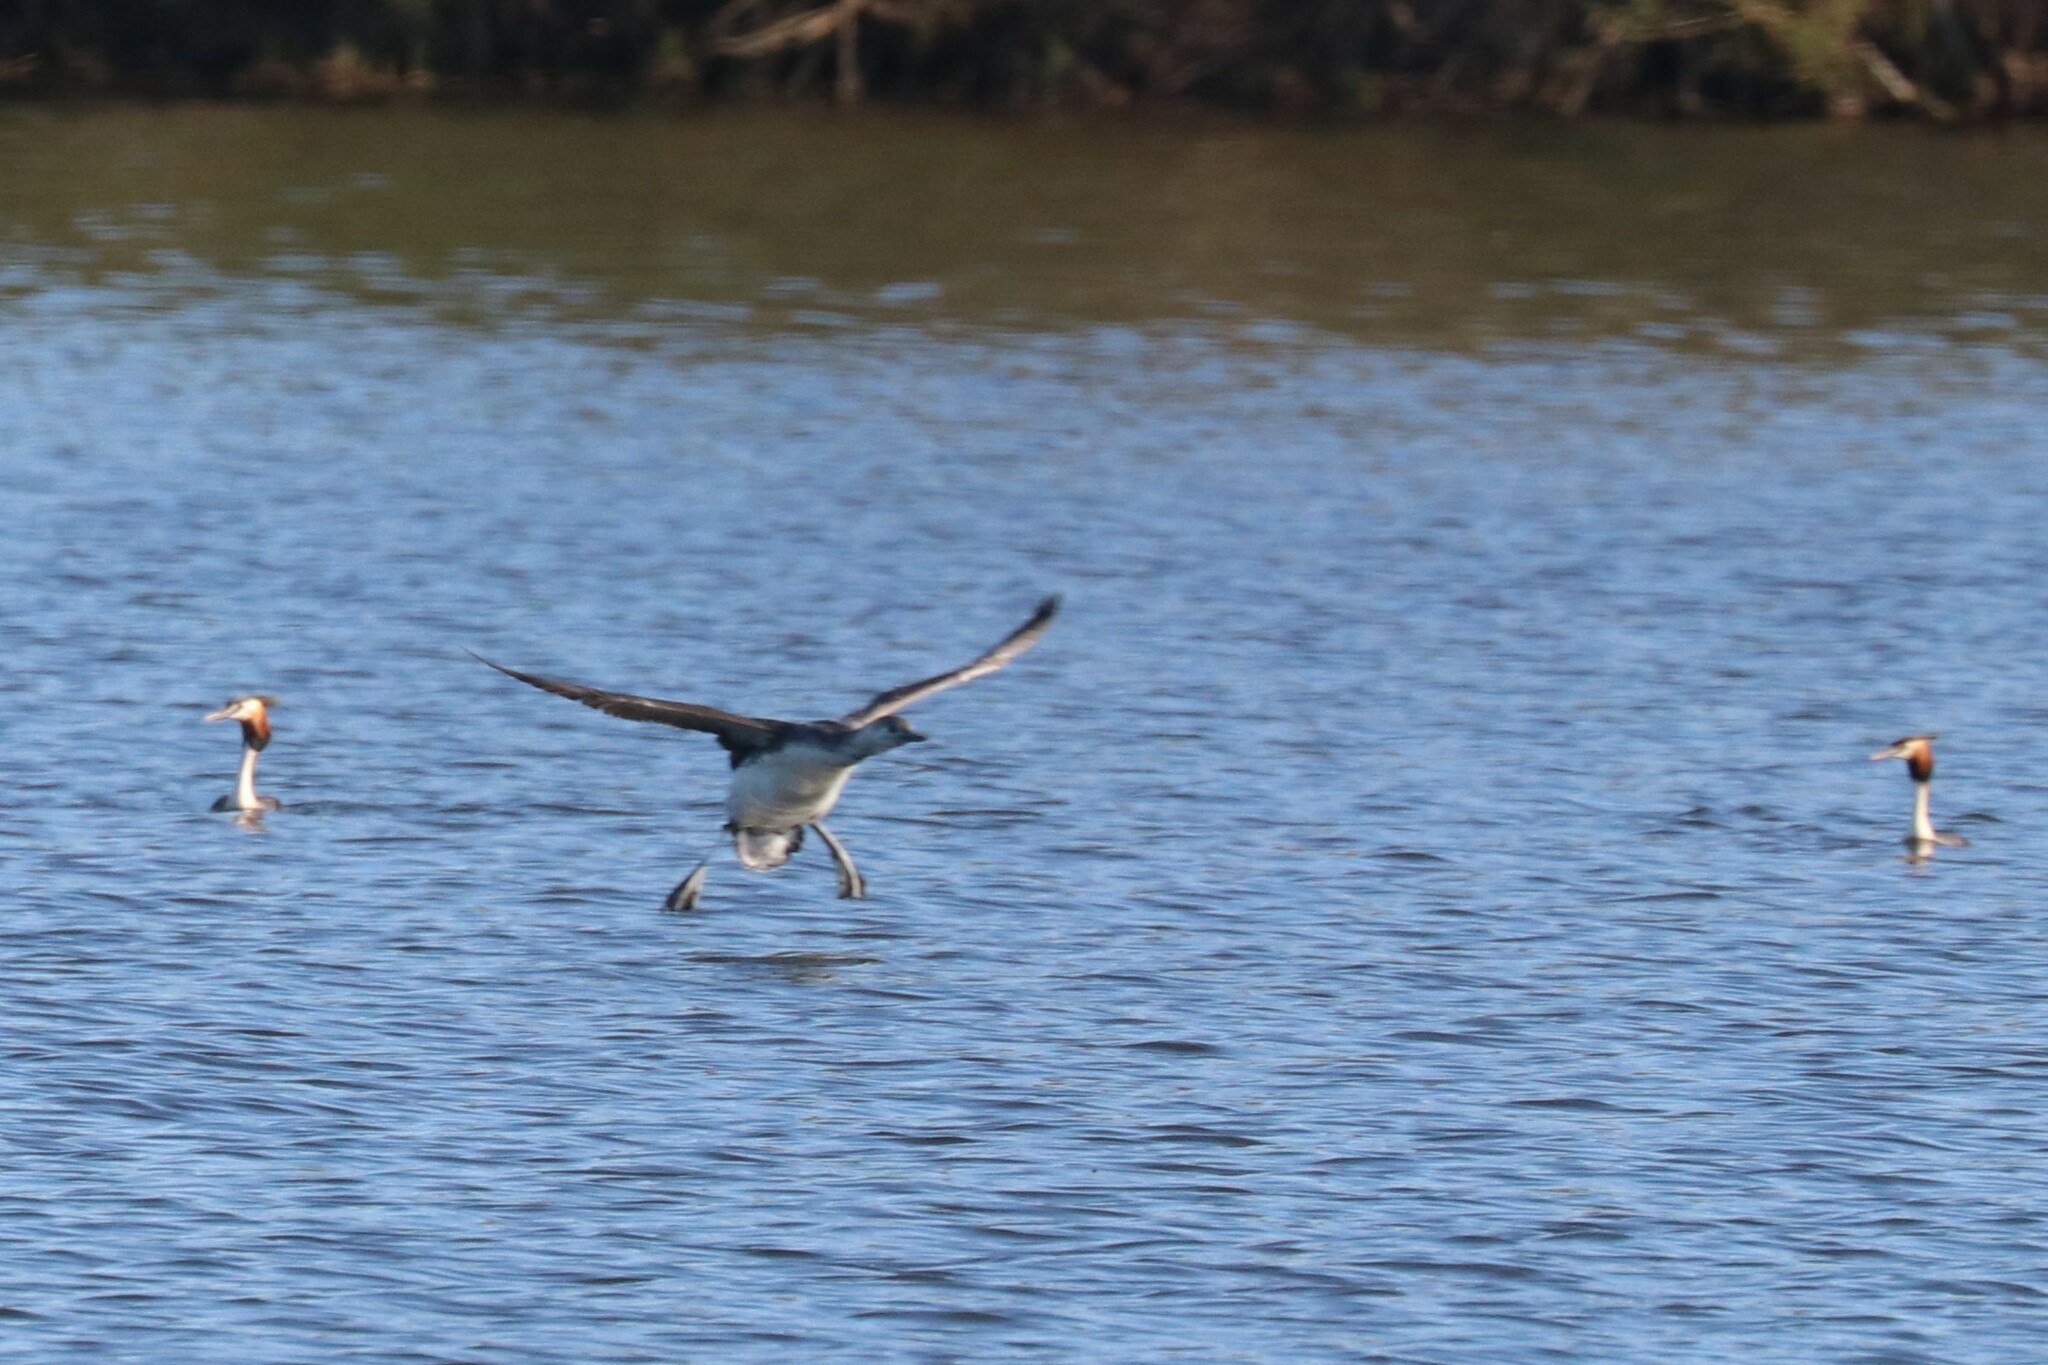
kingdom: Animalia
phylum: Chordata
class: Aves
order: Gaviiformes
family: Gaviidae
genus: Gavia
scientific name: Gavia stellata
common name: Red-throated loon
